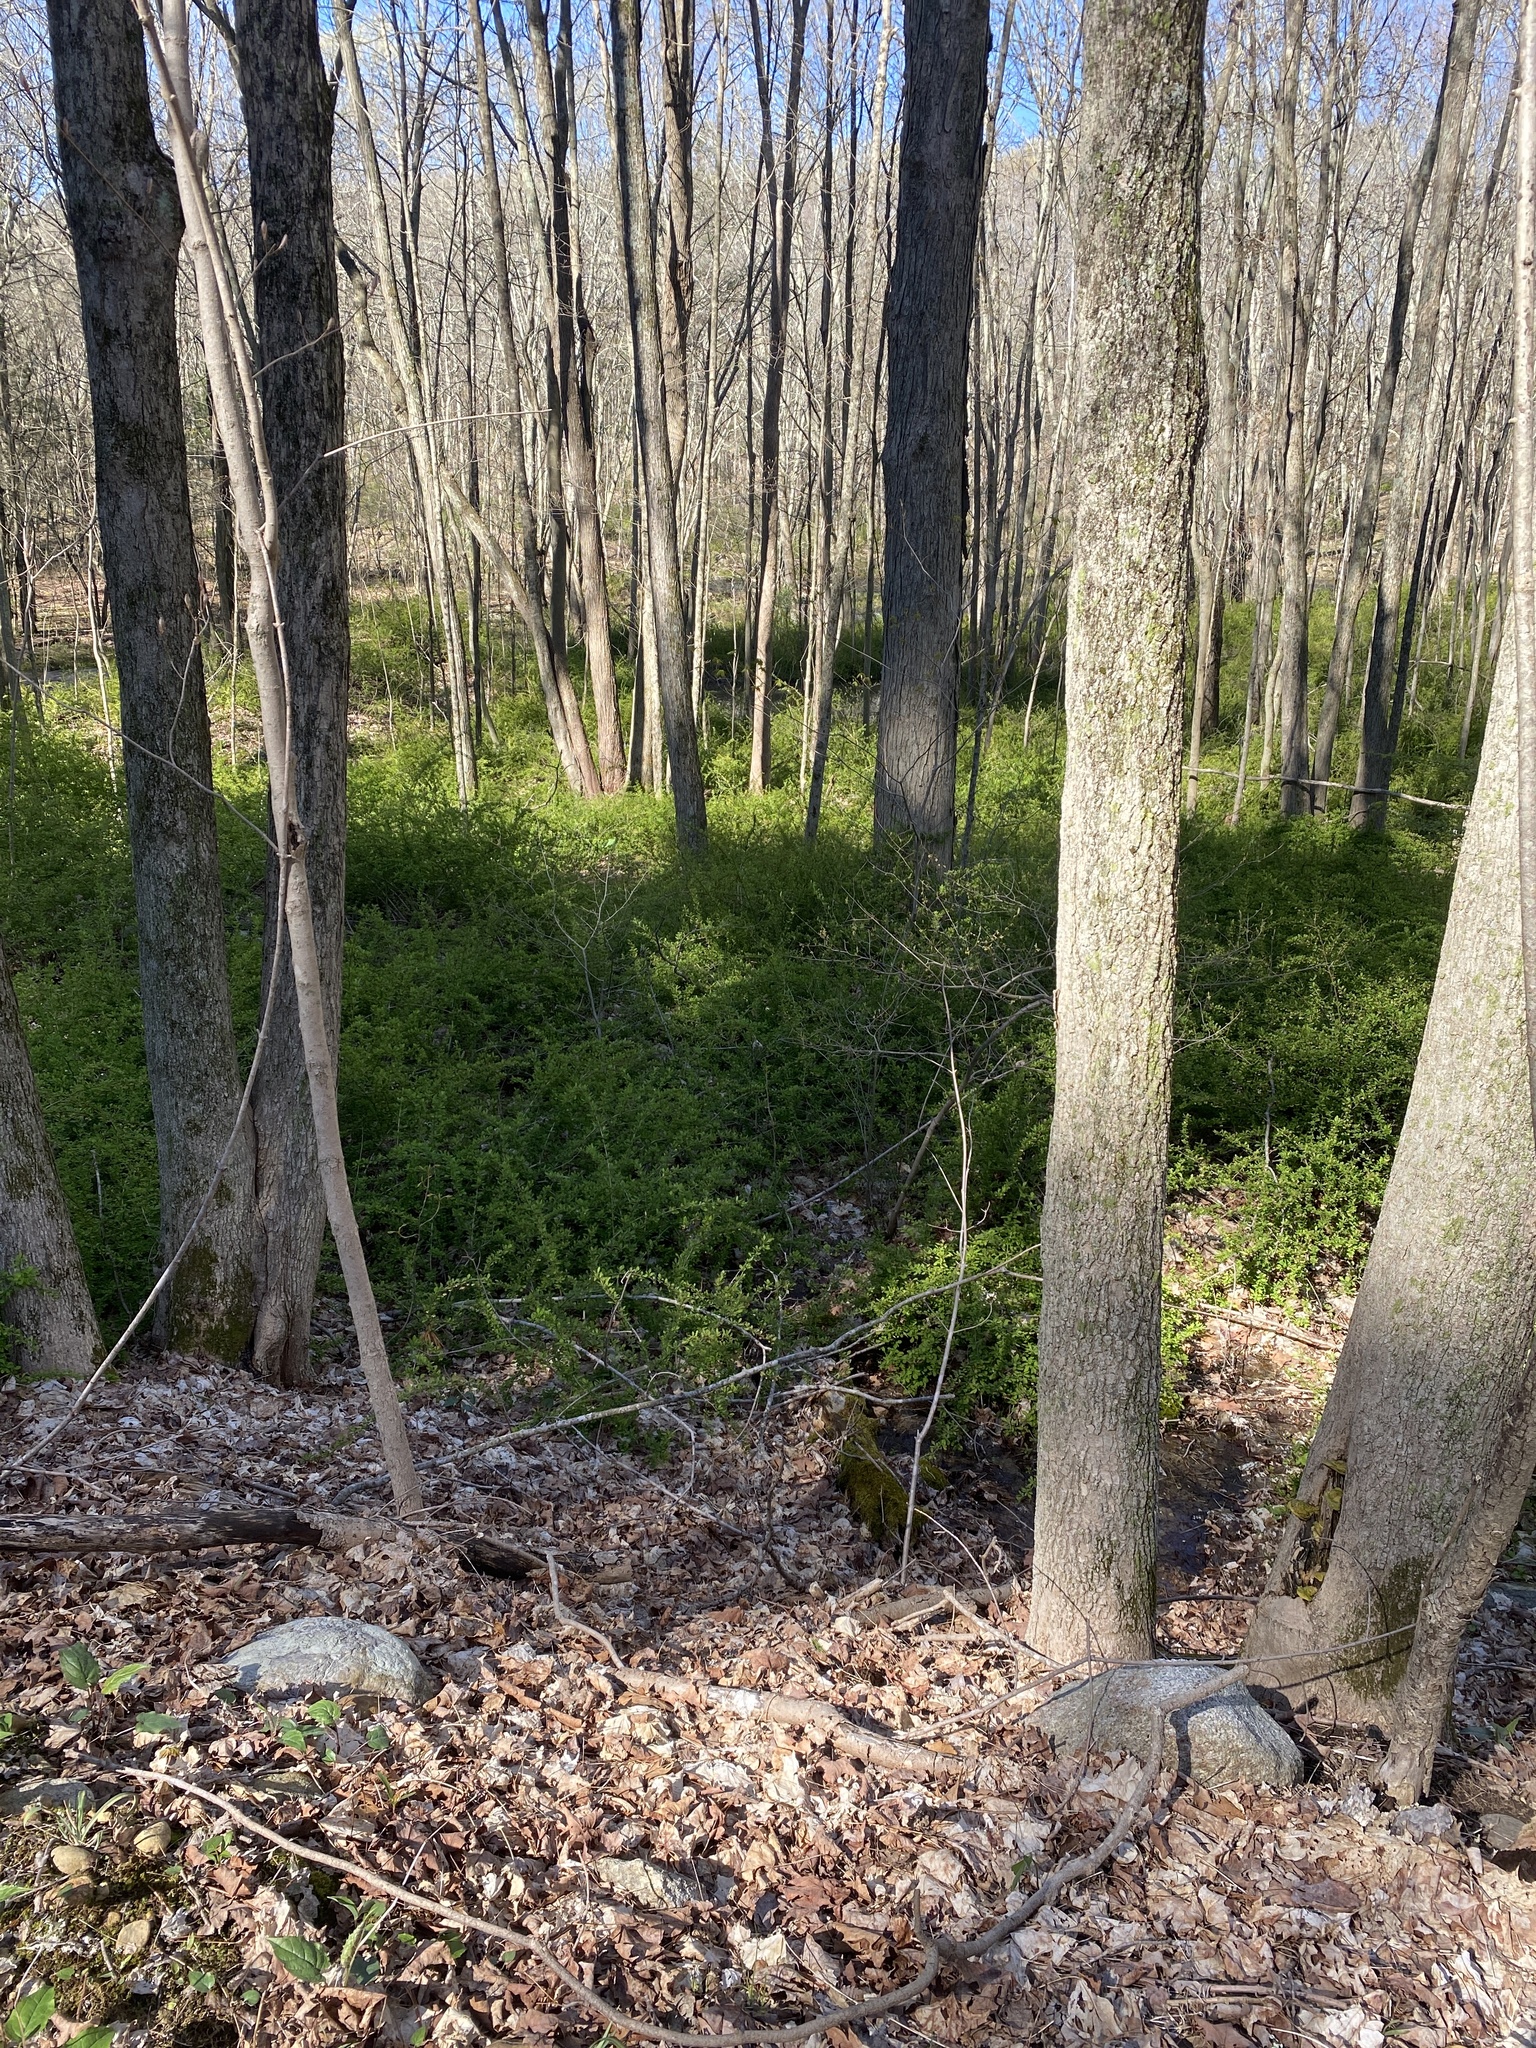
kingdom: Plantae
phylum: Tracheophyta
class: Magnoliopsida
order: Ranunculales
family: Berberidaceae
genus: Berberis
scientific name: Berberis thunbergii
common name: Japanese barberry
